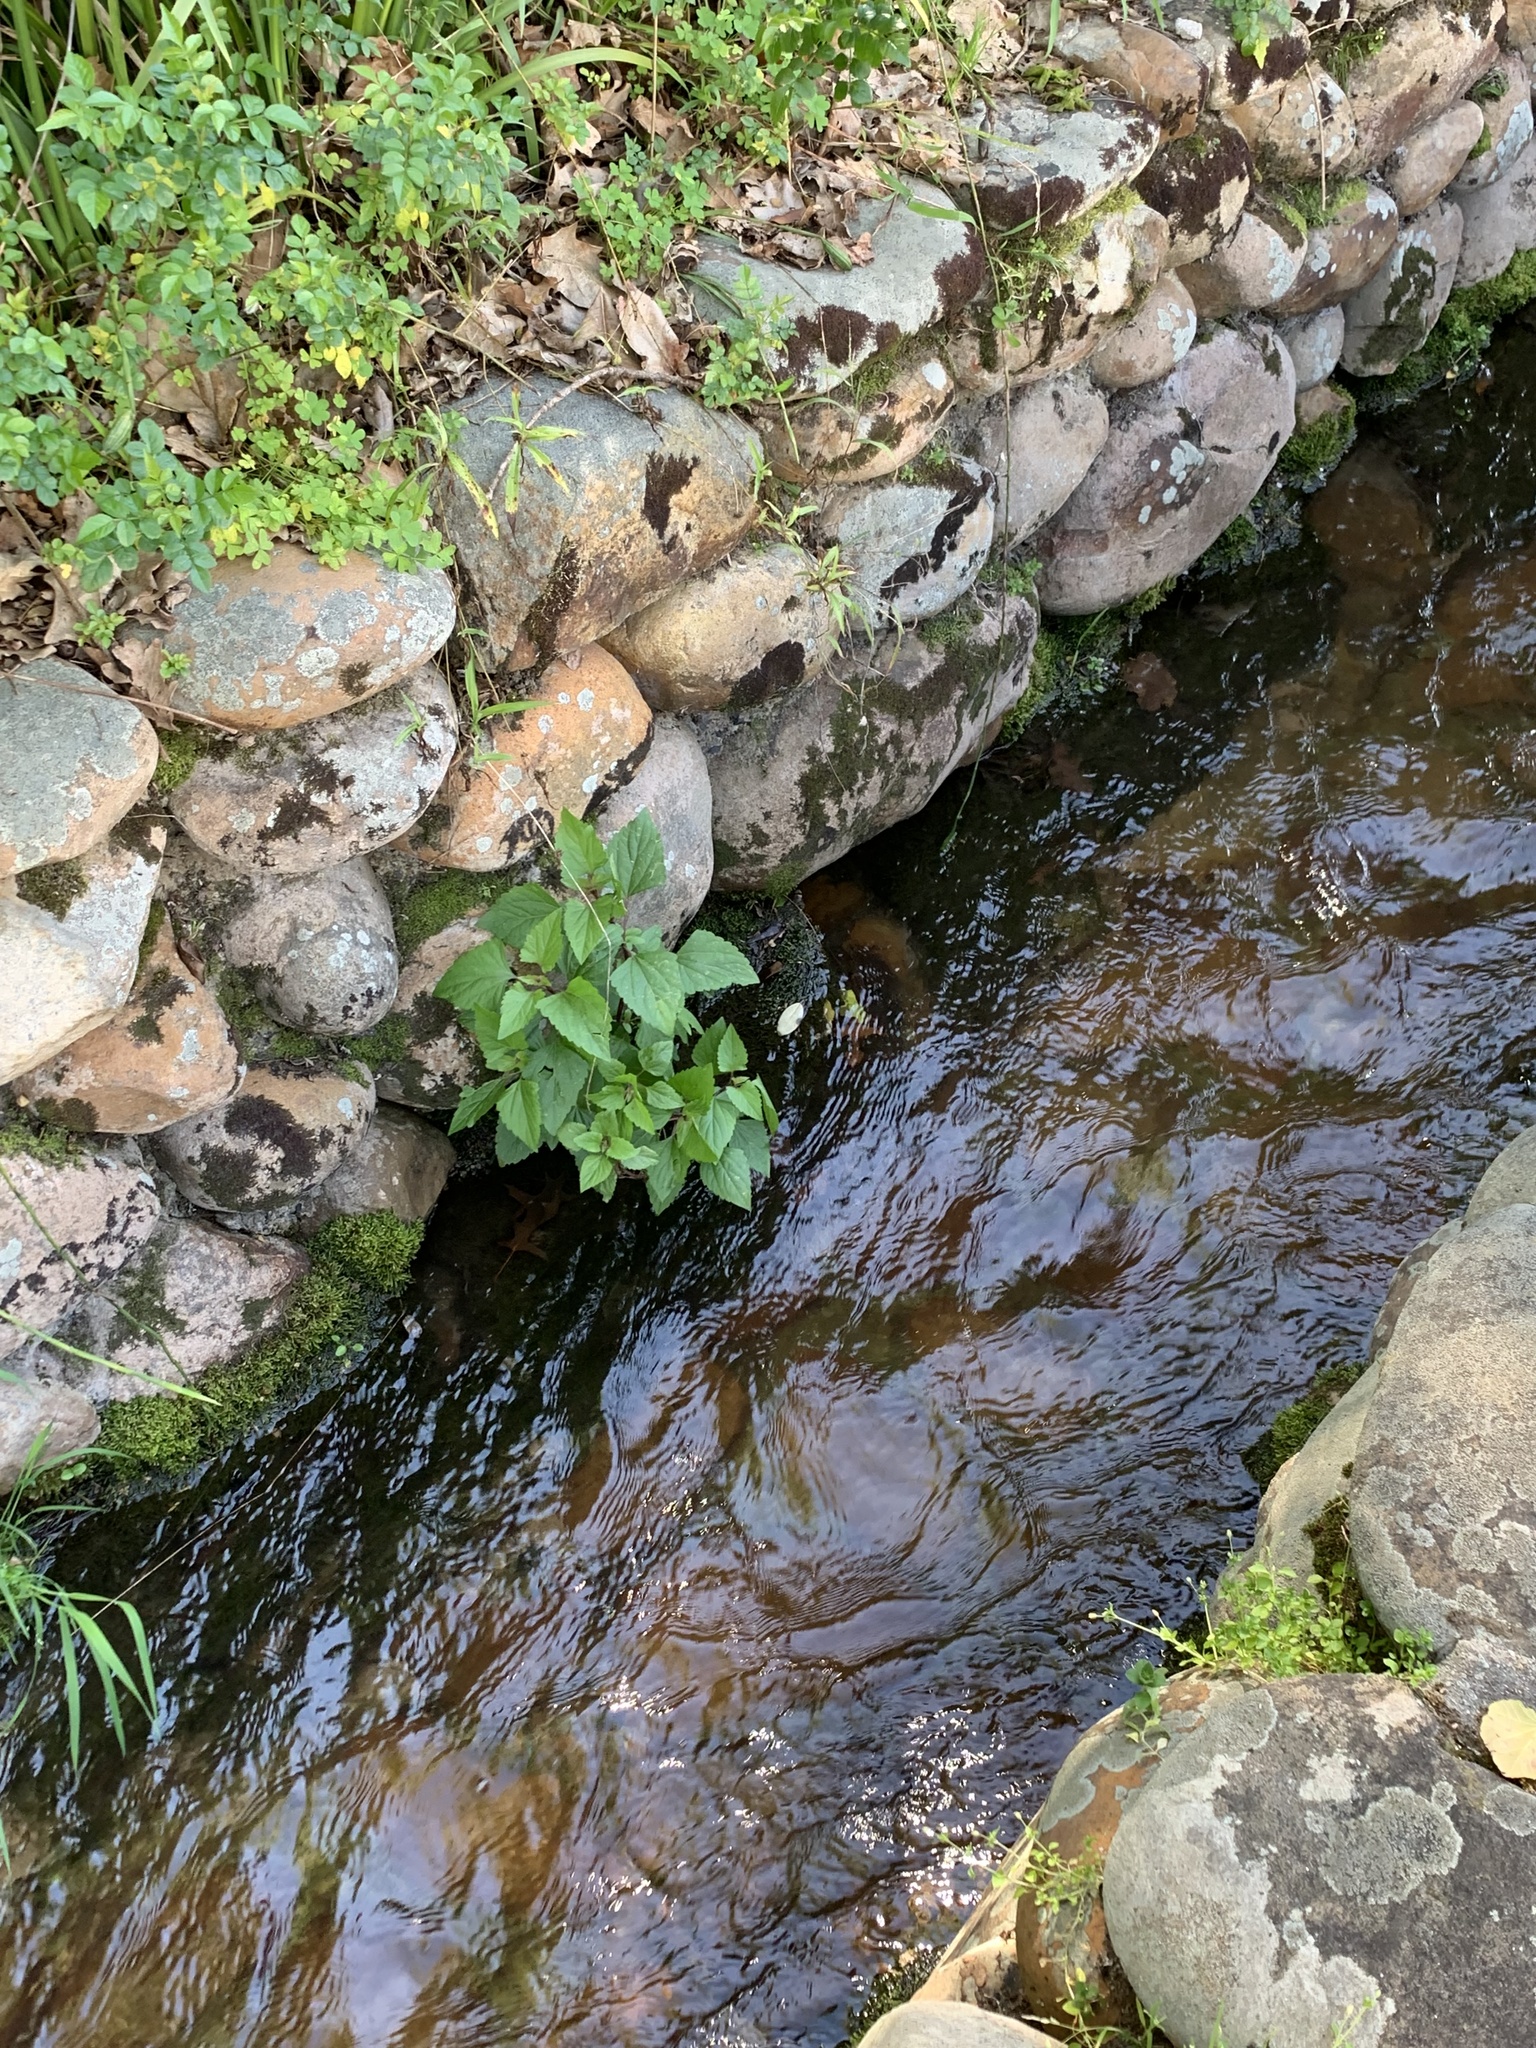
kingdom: Plantae
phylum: Tracheophyta
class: Magnoliopsida
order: Asterales
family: Asteraceae
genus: Ageratina
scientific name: Ageratina adenophora
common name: Sticky snakeroot
